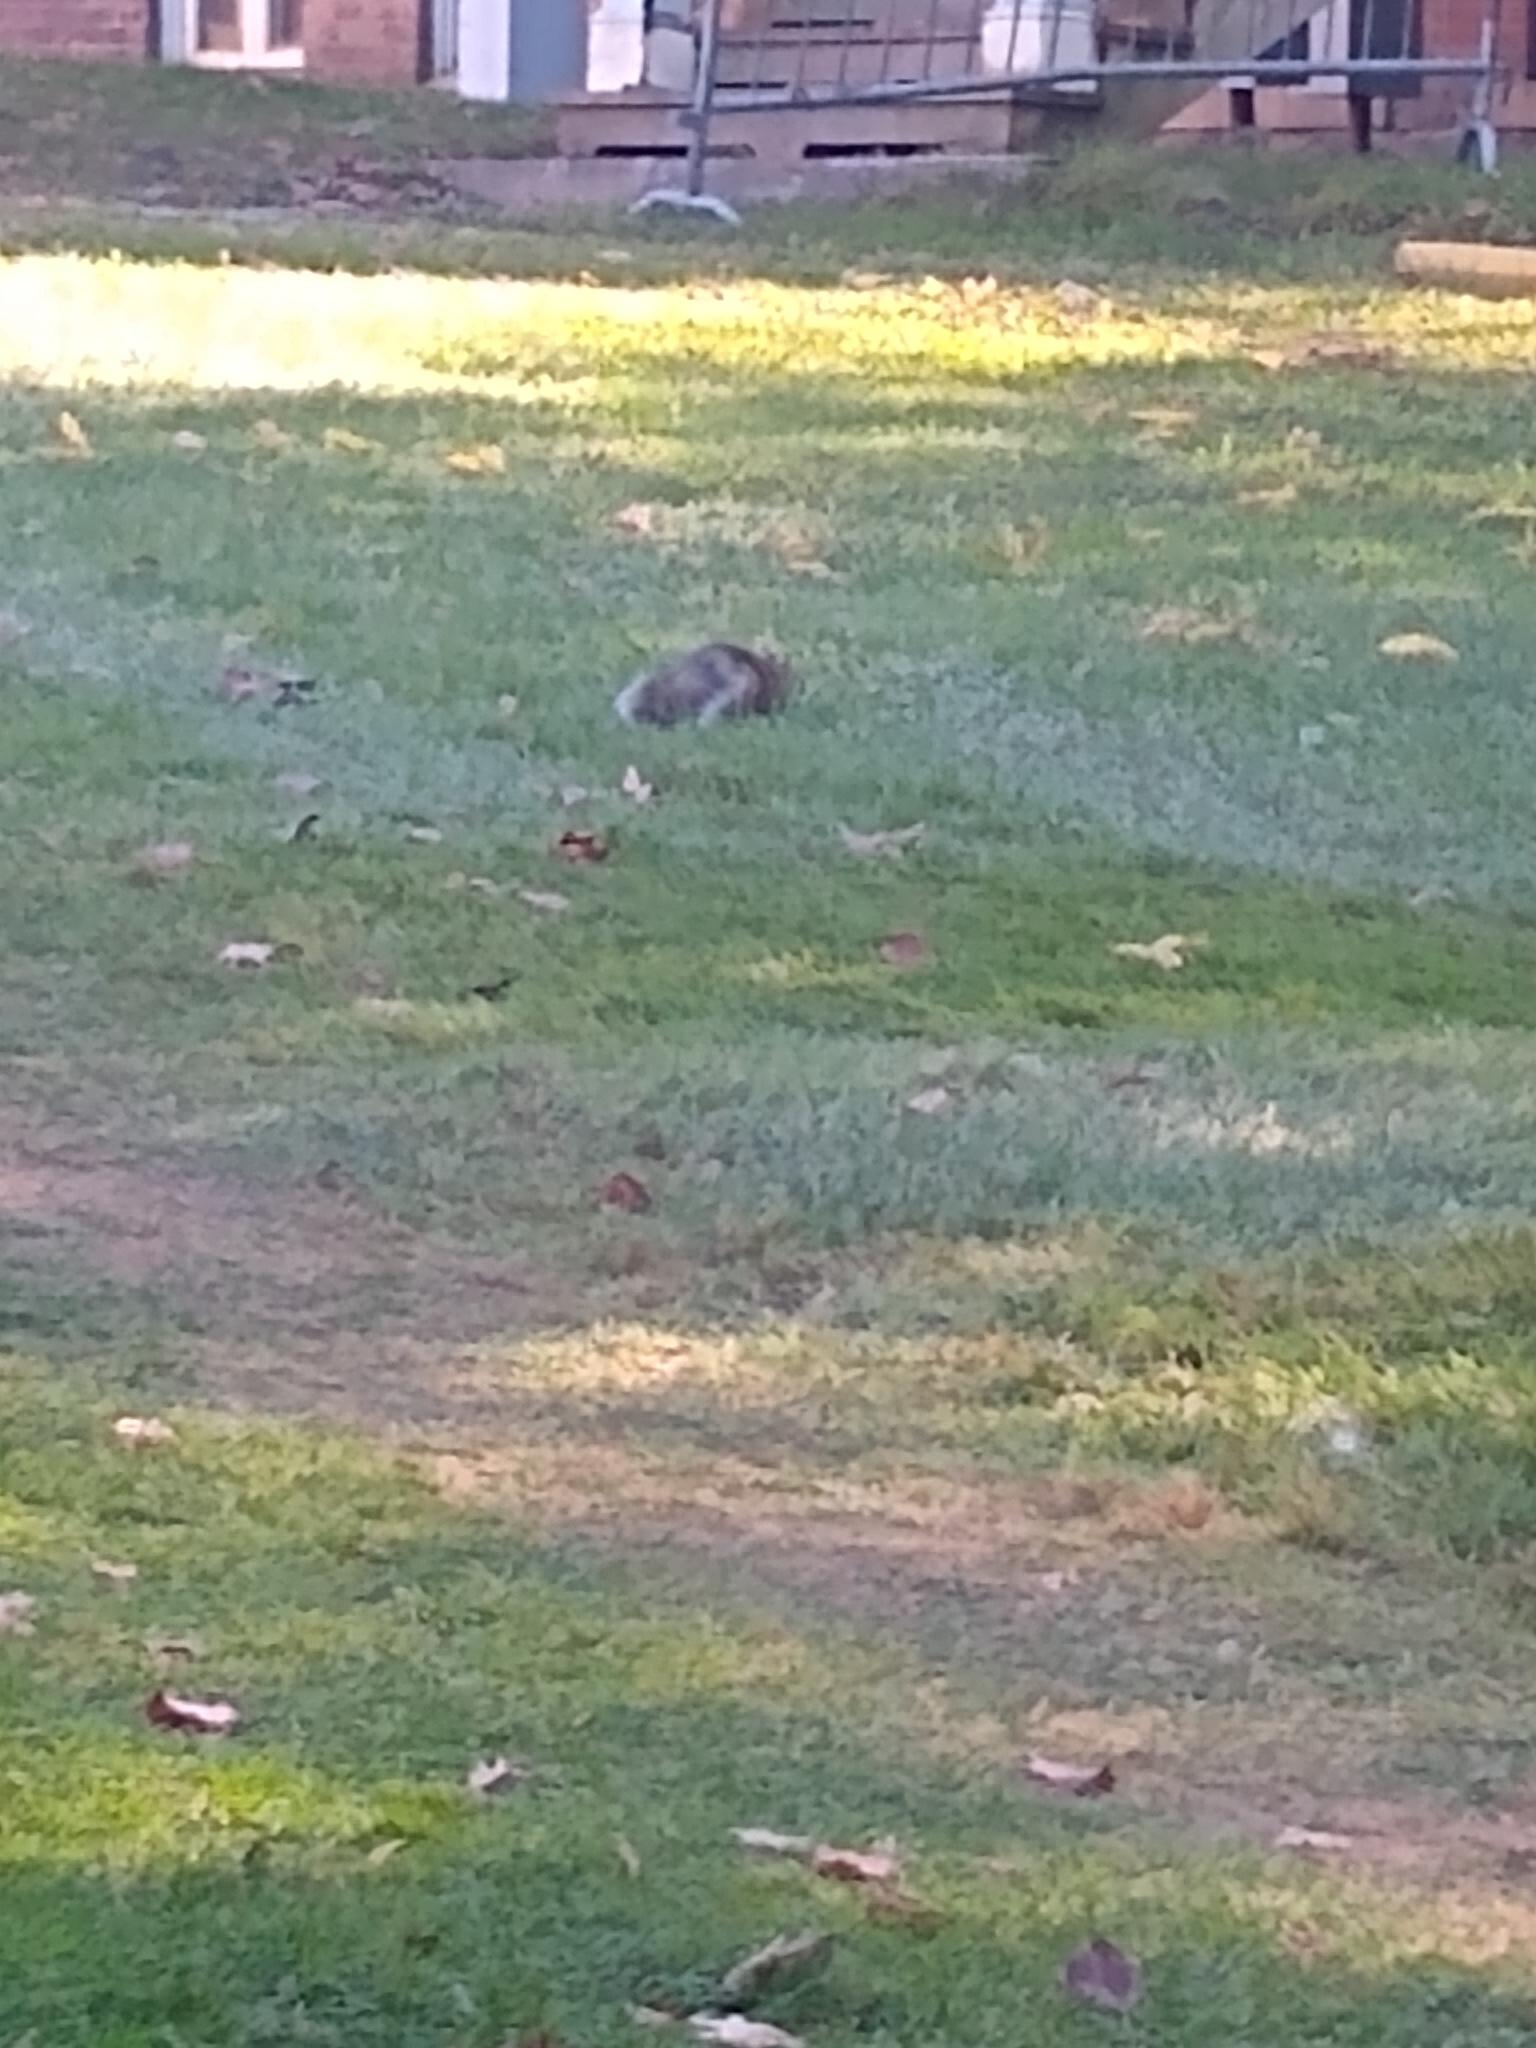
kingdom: Animalia
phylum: Chordata
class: Mammalia
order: Rodentia
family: Sciuridae
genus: Sciurus
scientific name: Sciurus carolinensis
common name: Eastern gray squirrel
